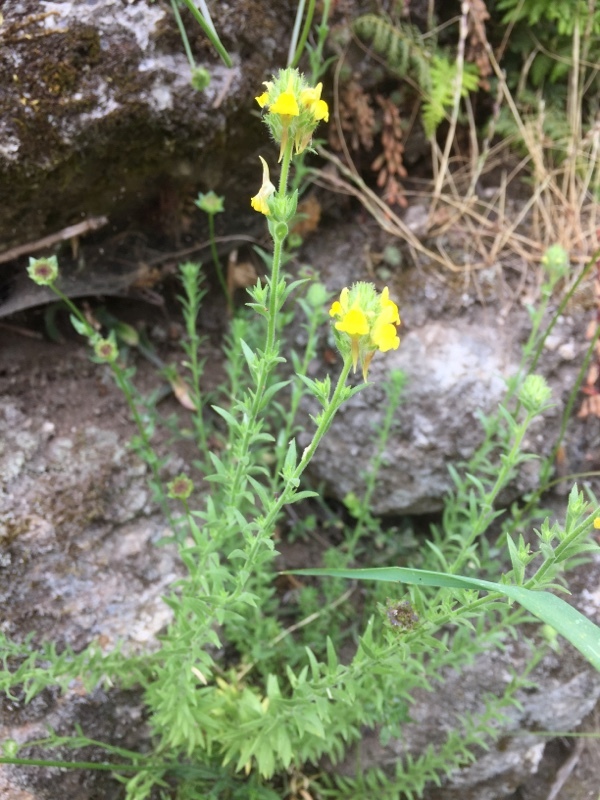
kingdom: Plantae
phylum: Tracheophyta
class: Magnoliopsida
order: Lamiales
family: Plantaginaceae
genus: Linaria
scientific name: Linaria saxatilis
